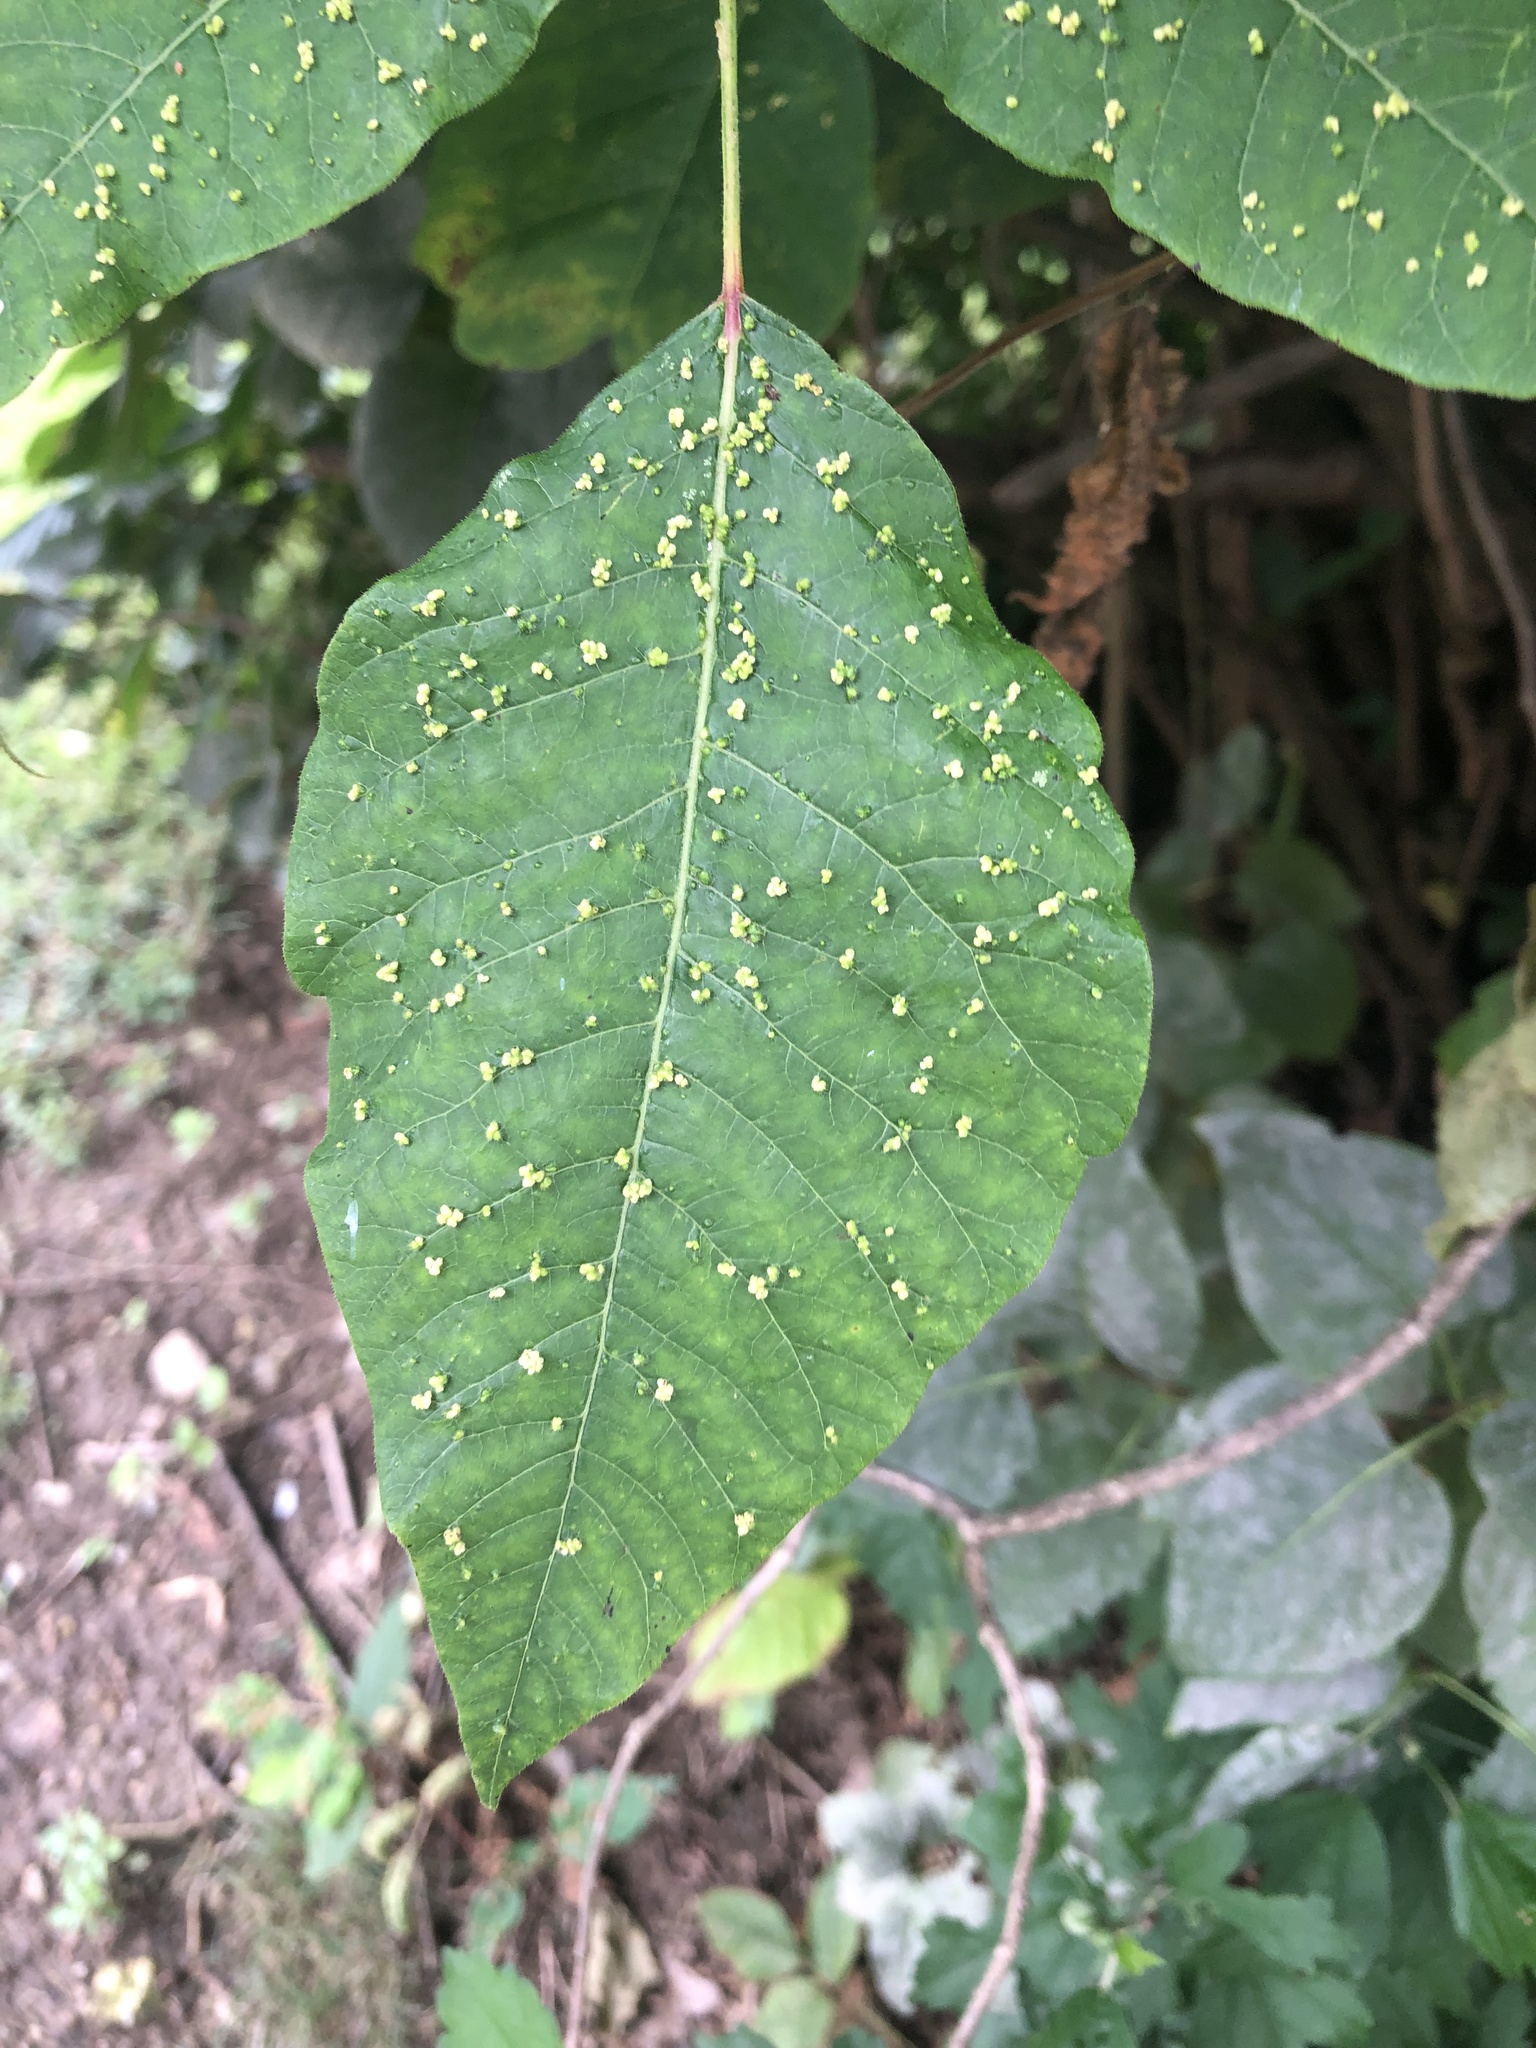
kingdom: Animalia
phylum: Arthropoda
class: Arachnida
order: Trombidiformes
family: Eriophyidae
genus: Aculops
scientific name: Aculops
